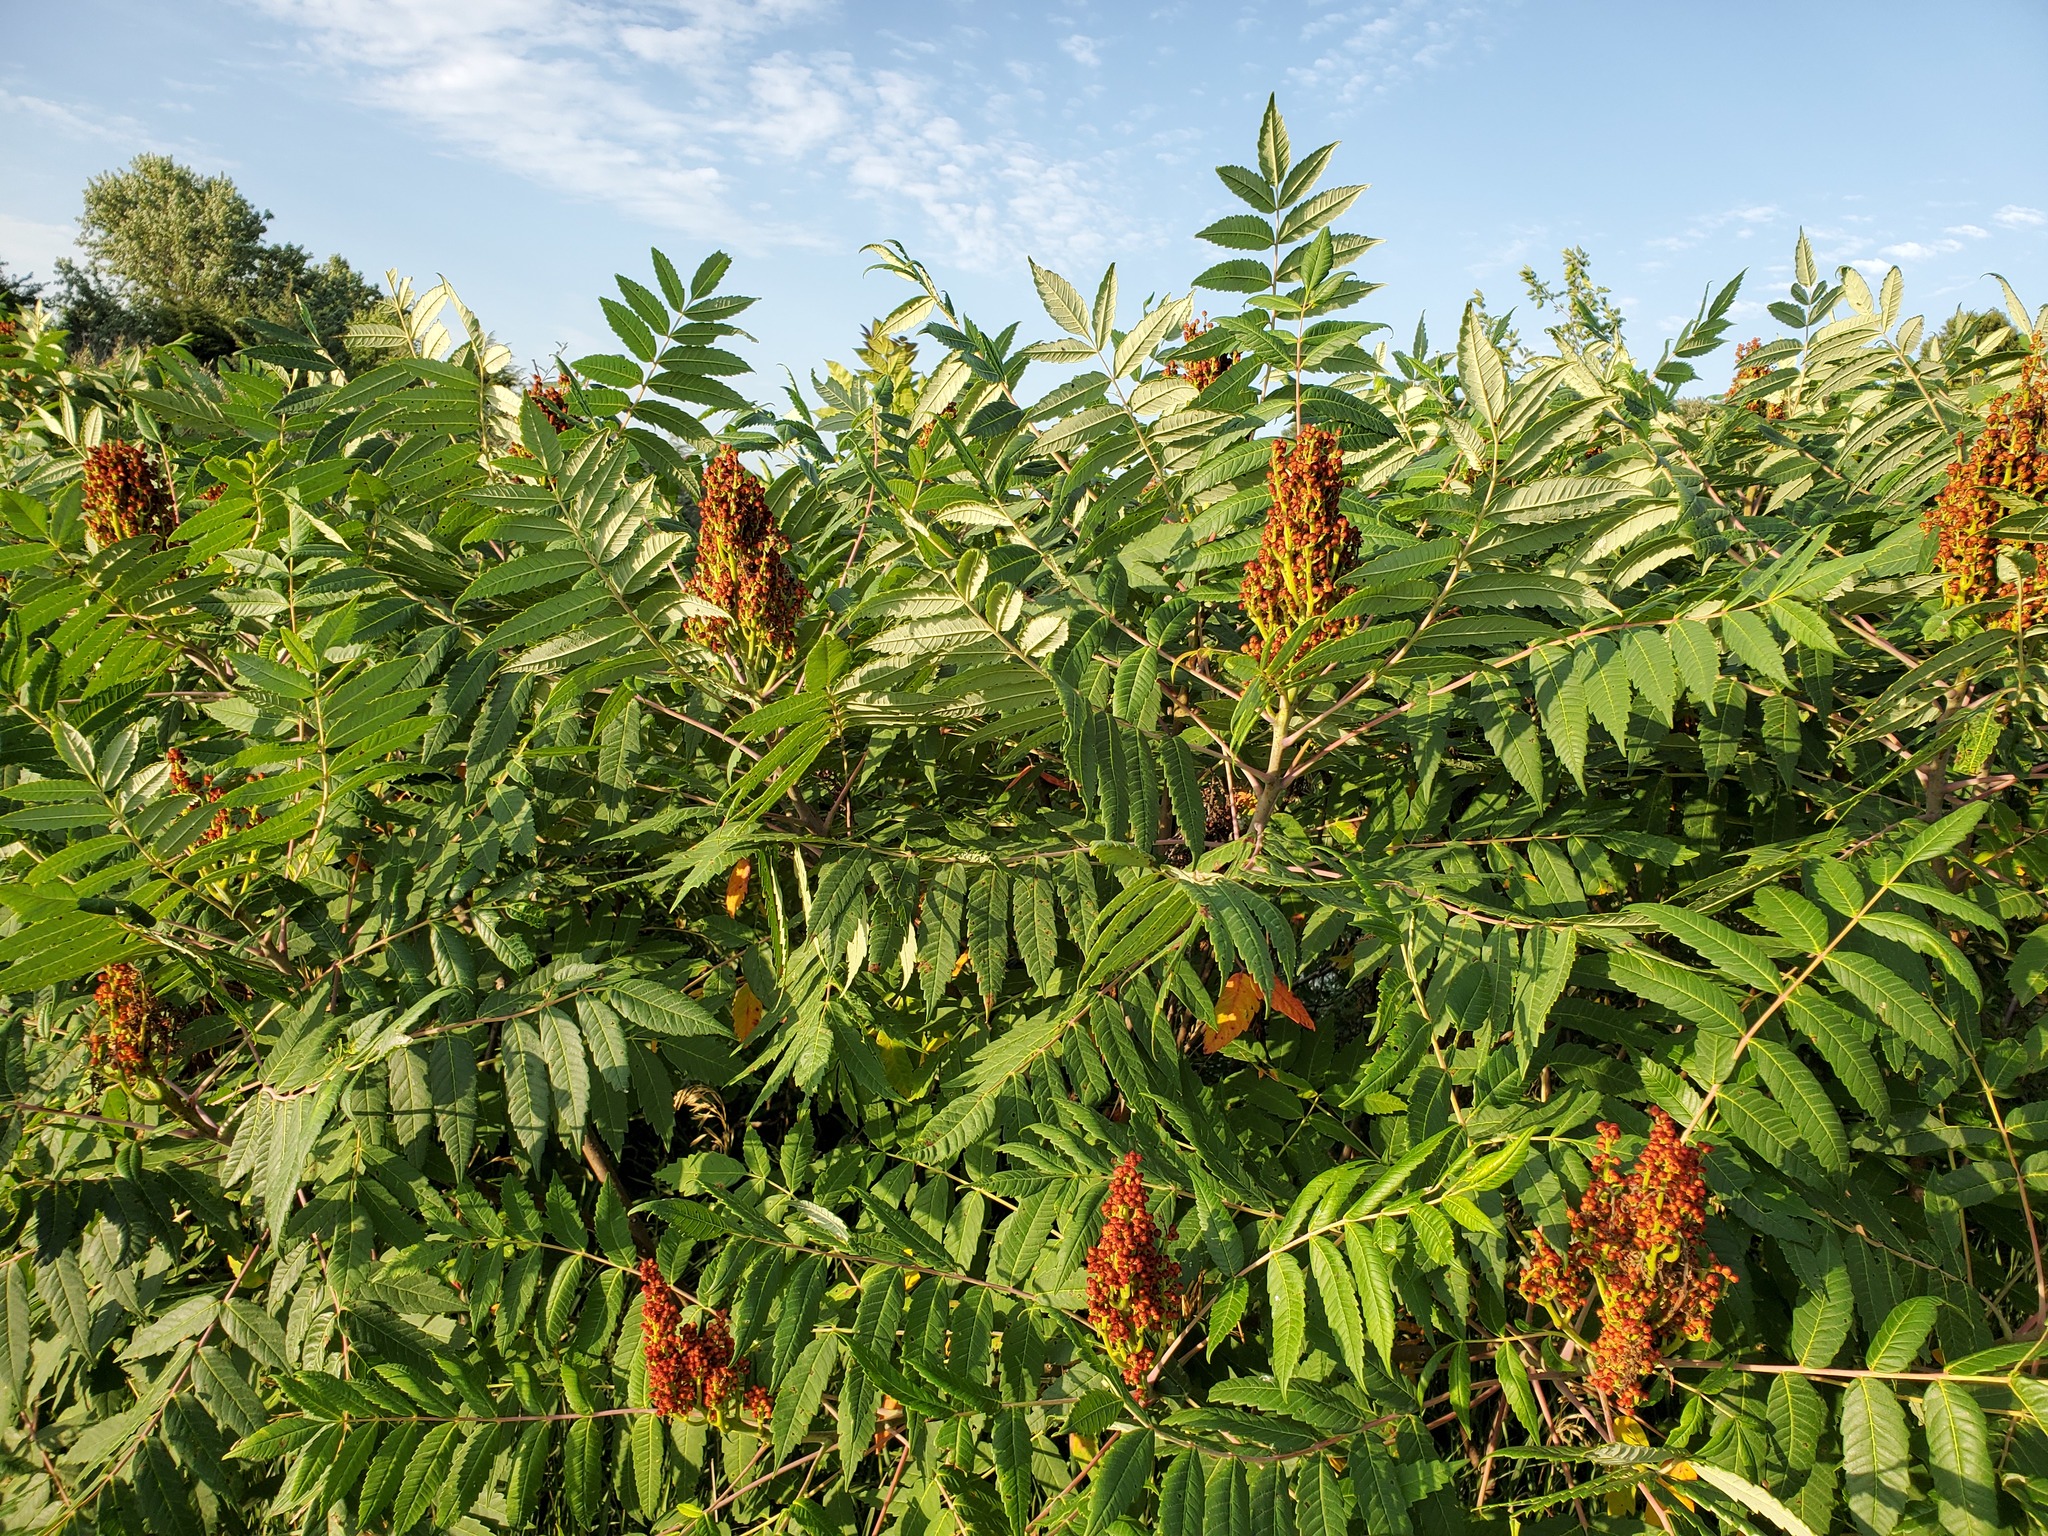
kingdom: Plantae
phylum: Tracheophyta
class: Magnoliopsida
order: Sapindales
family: Anacardiaceae
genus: Rhus
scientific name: Rhus glabra
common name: Scarlet sumac
